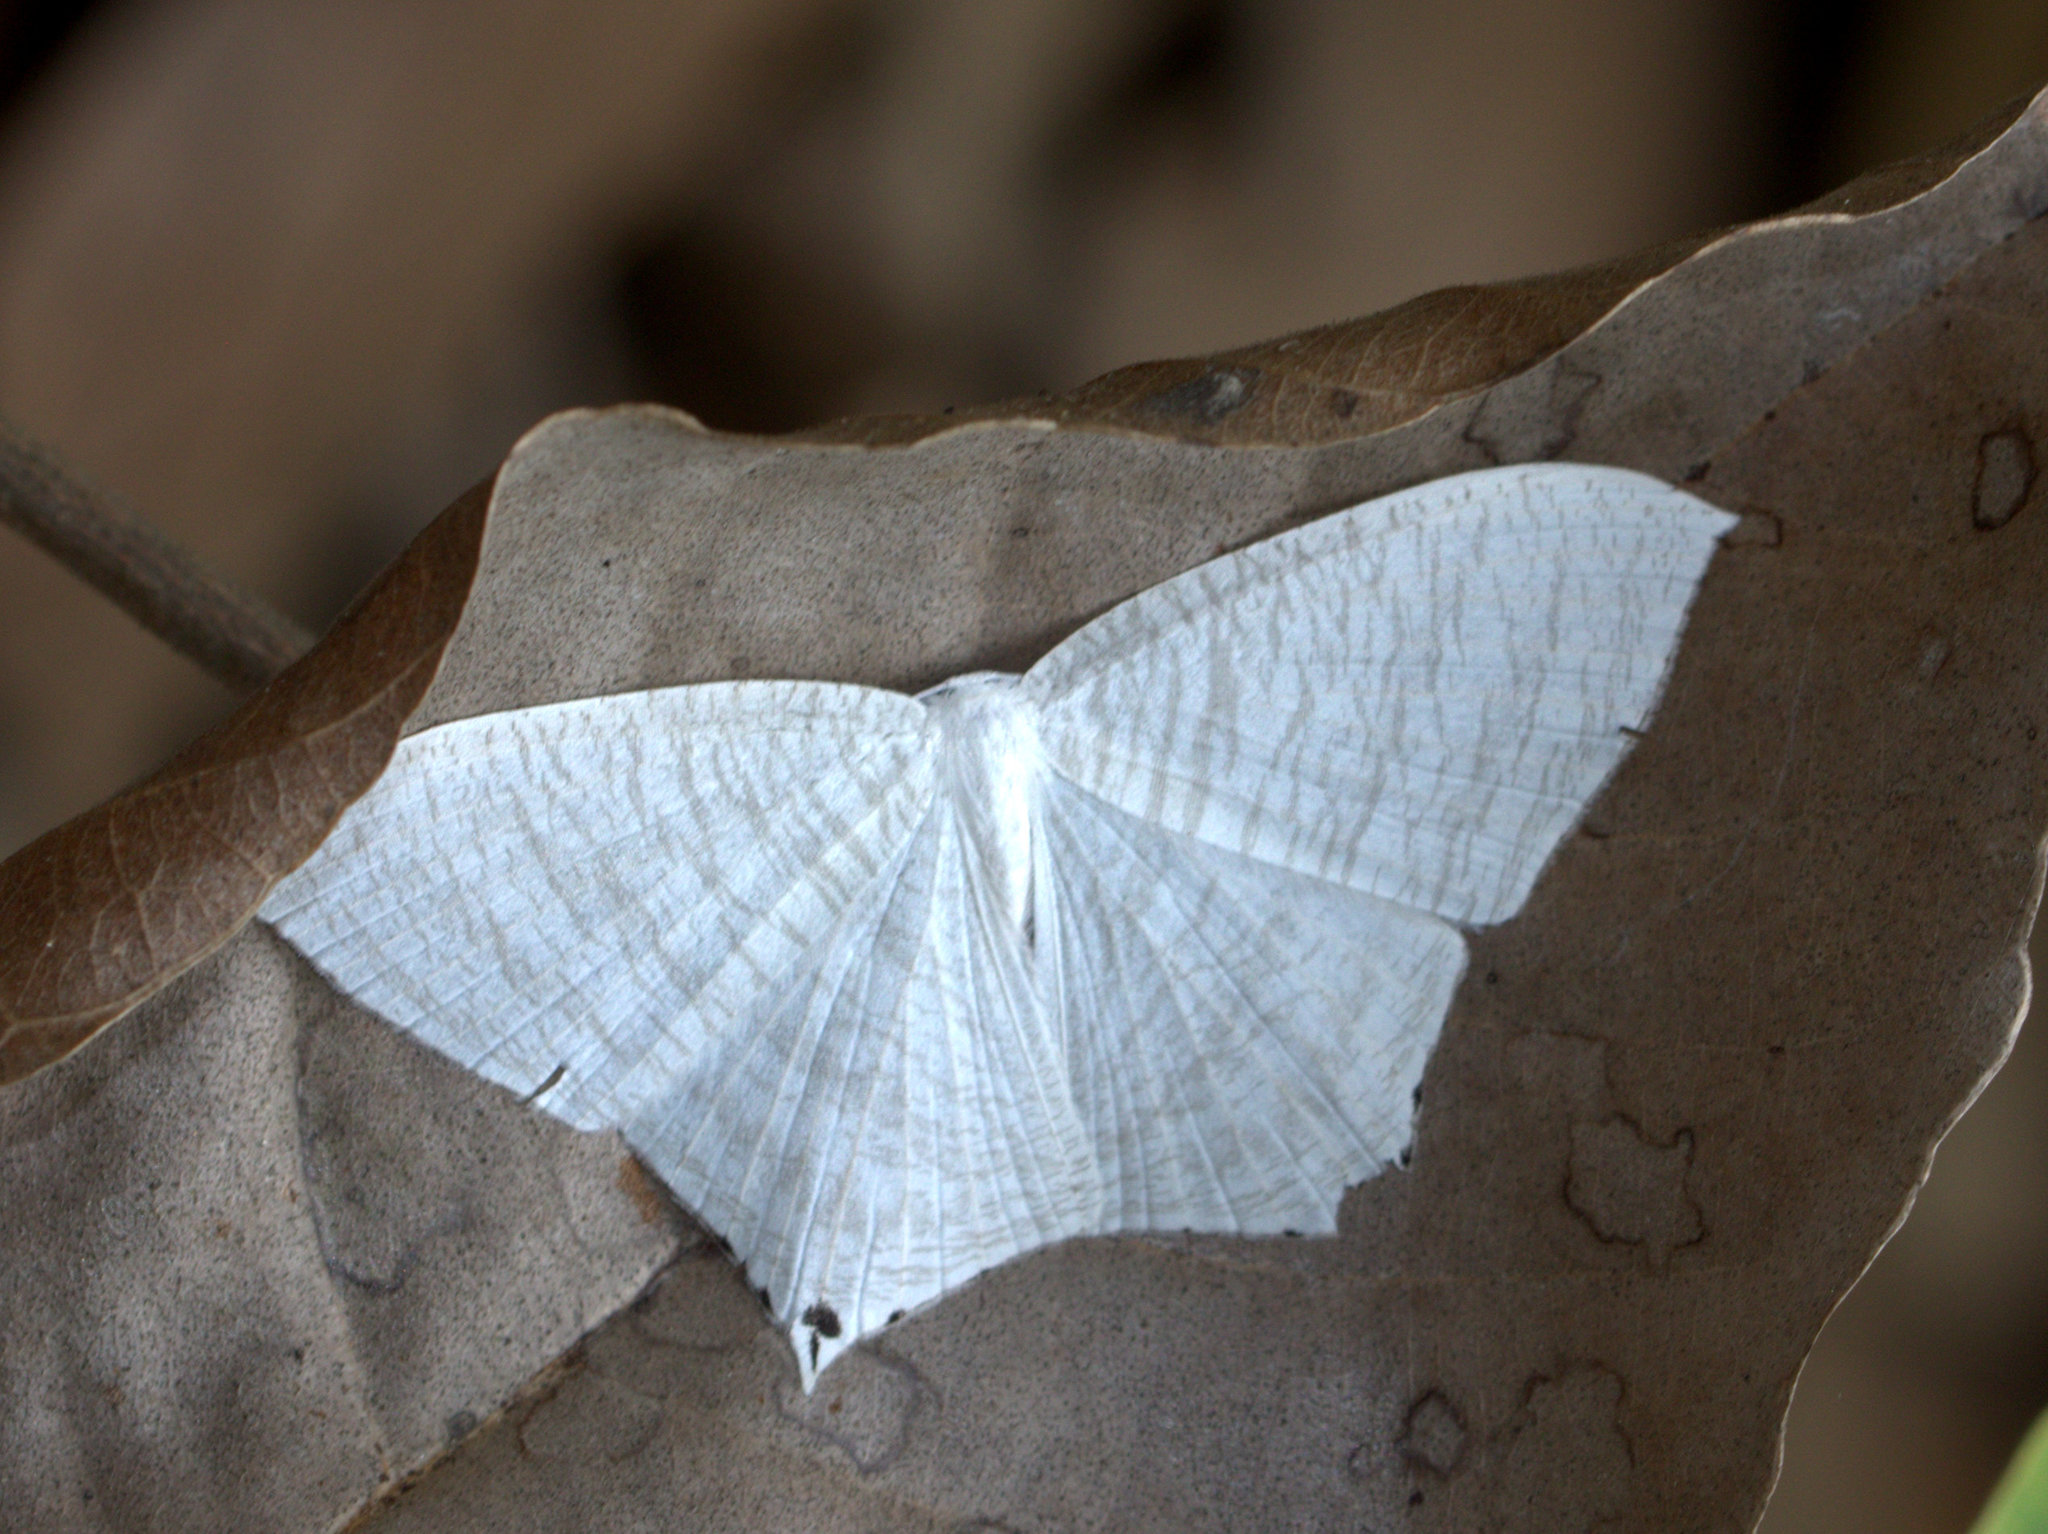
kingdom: Animalia
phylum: Arthropoda
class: Insecta
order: Lepidoptera
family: Uraniidae
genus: Micronia
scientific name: Micronia aculeata
